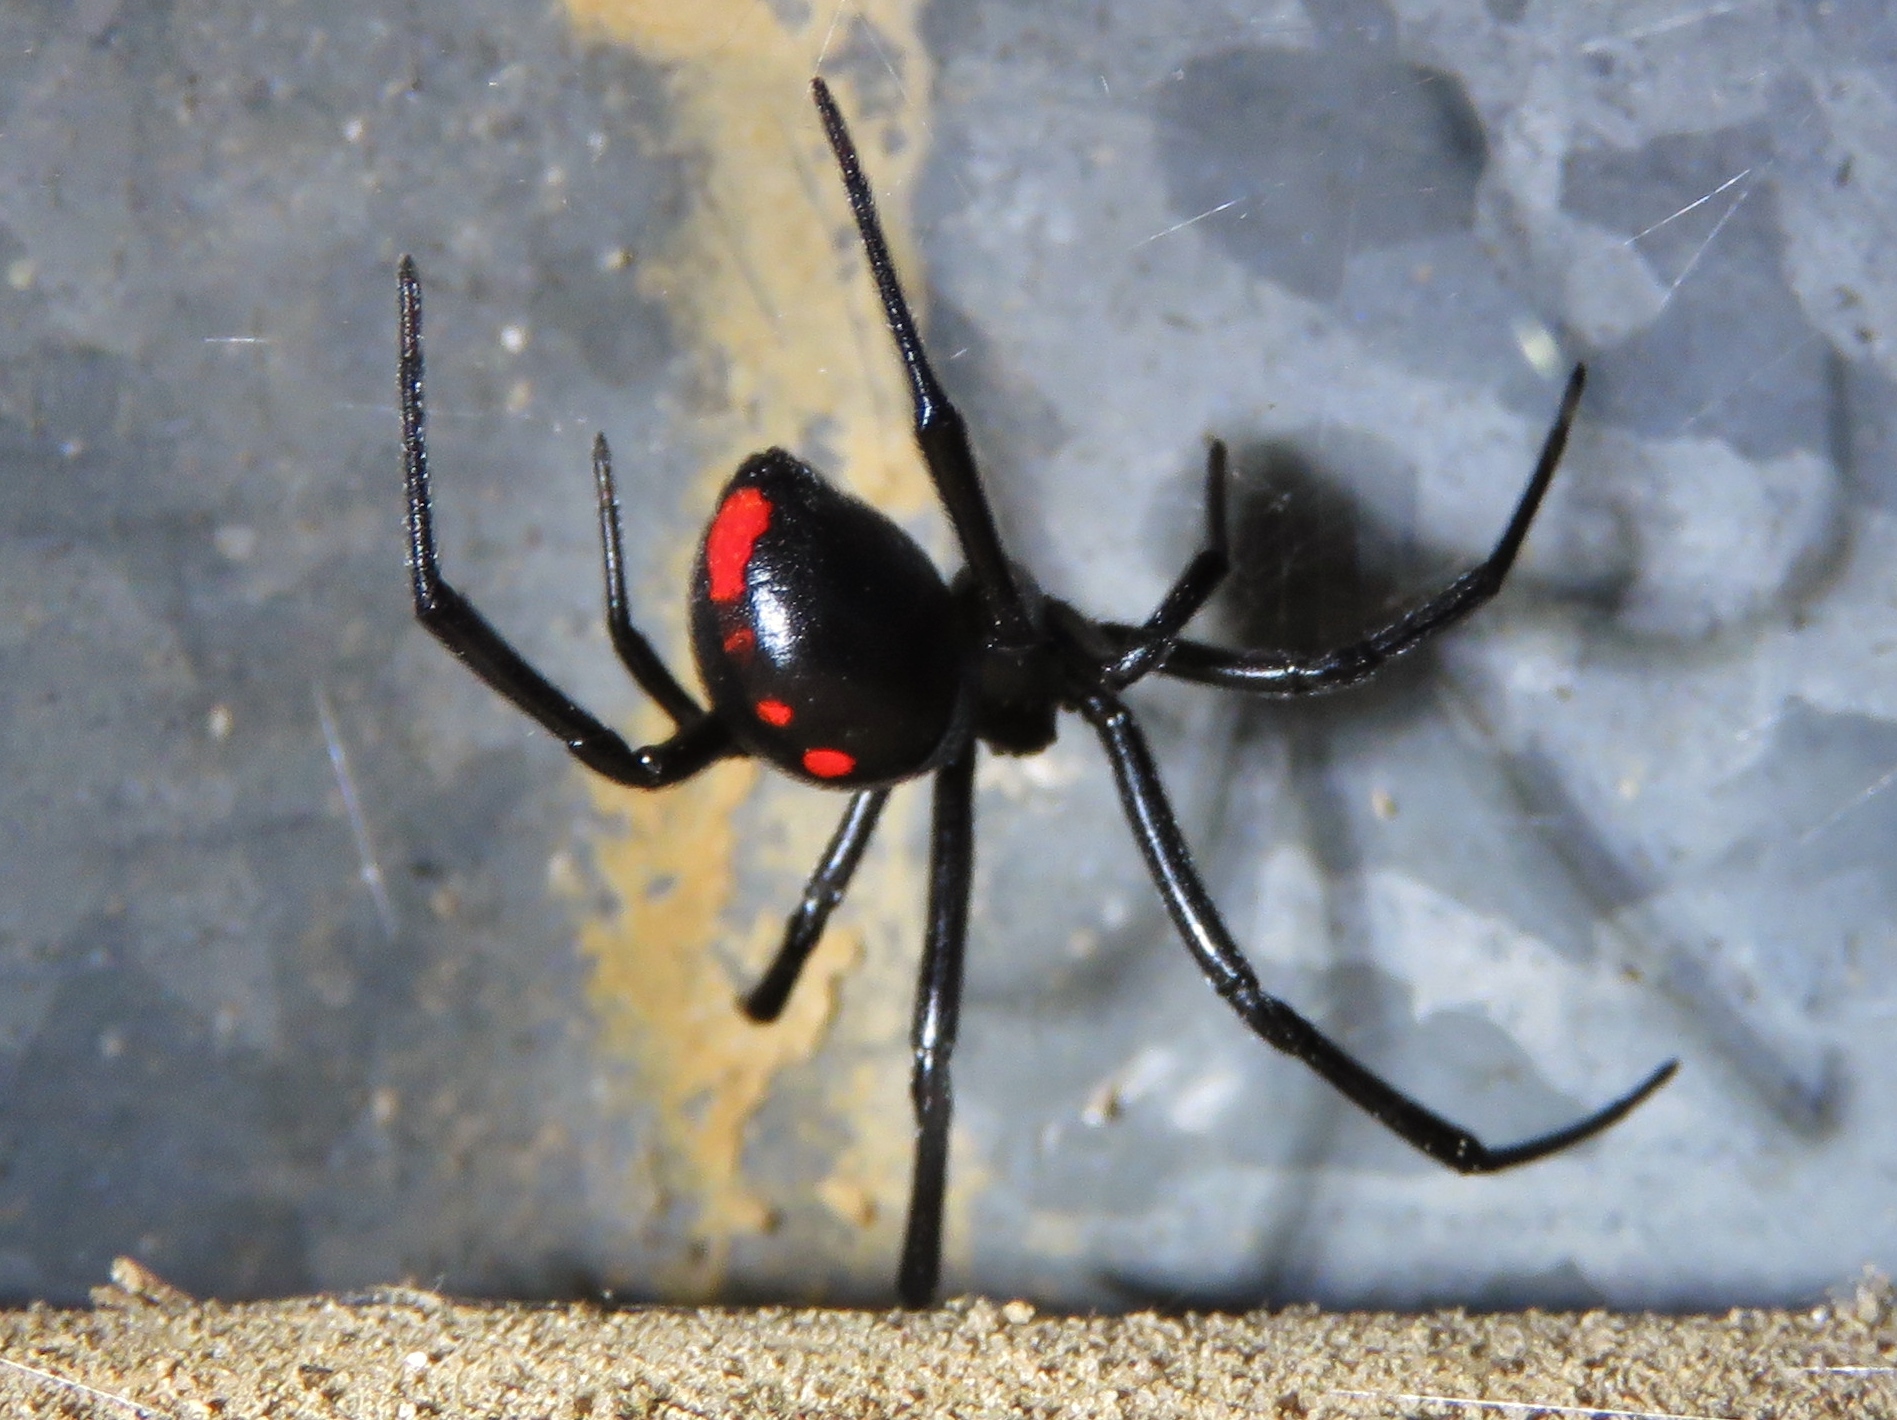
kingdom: Animalia
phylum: Arthropoda
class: Arachnida
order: Araneae
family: Theridiidae
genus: Latrodectus
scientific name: Latrodectus mactans
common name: Cobweb spiders
